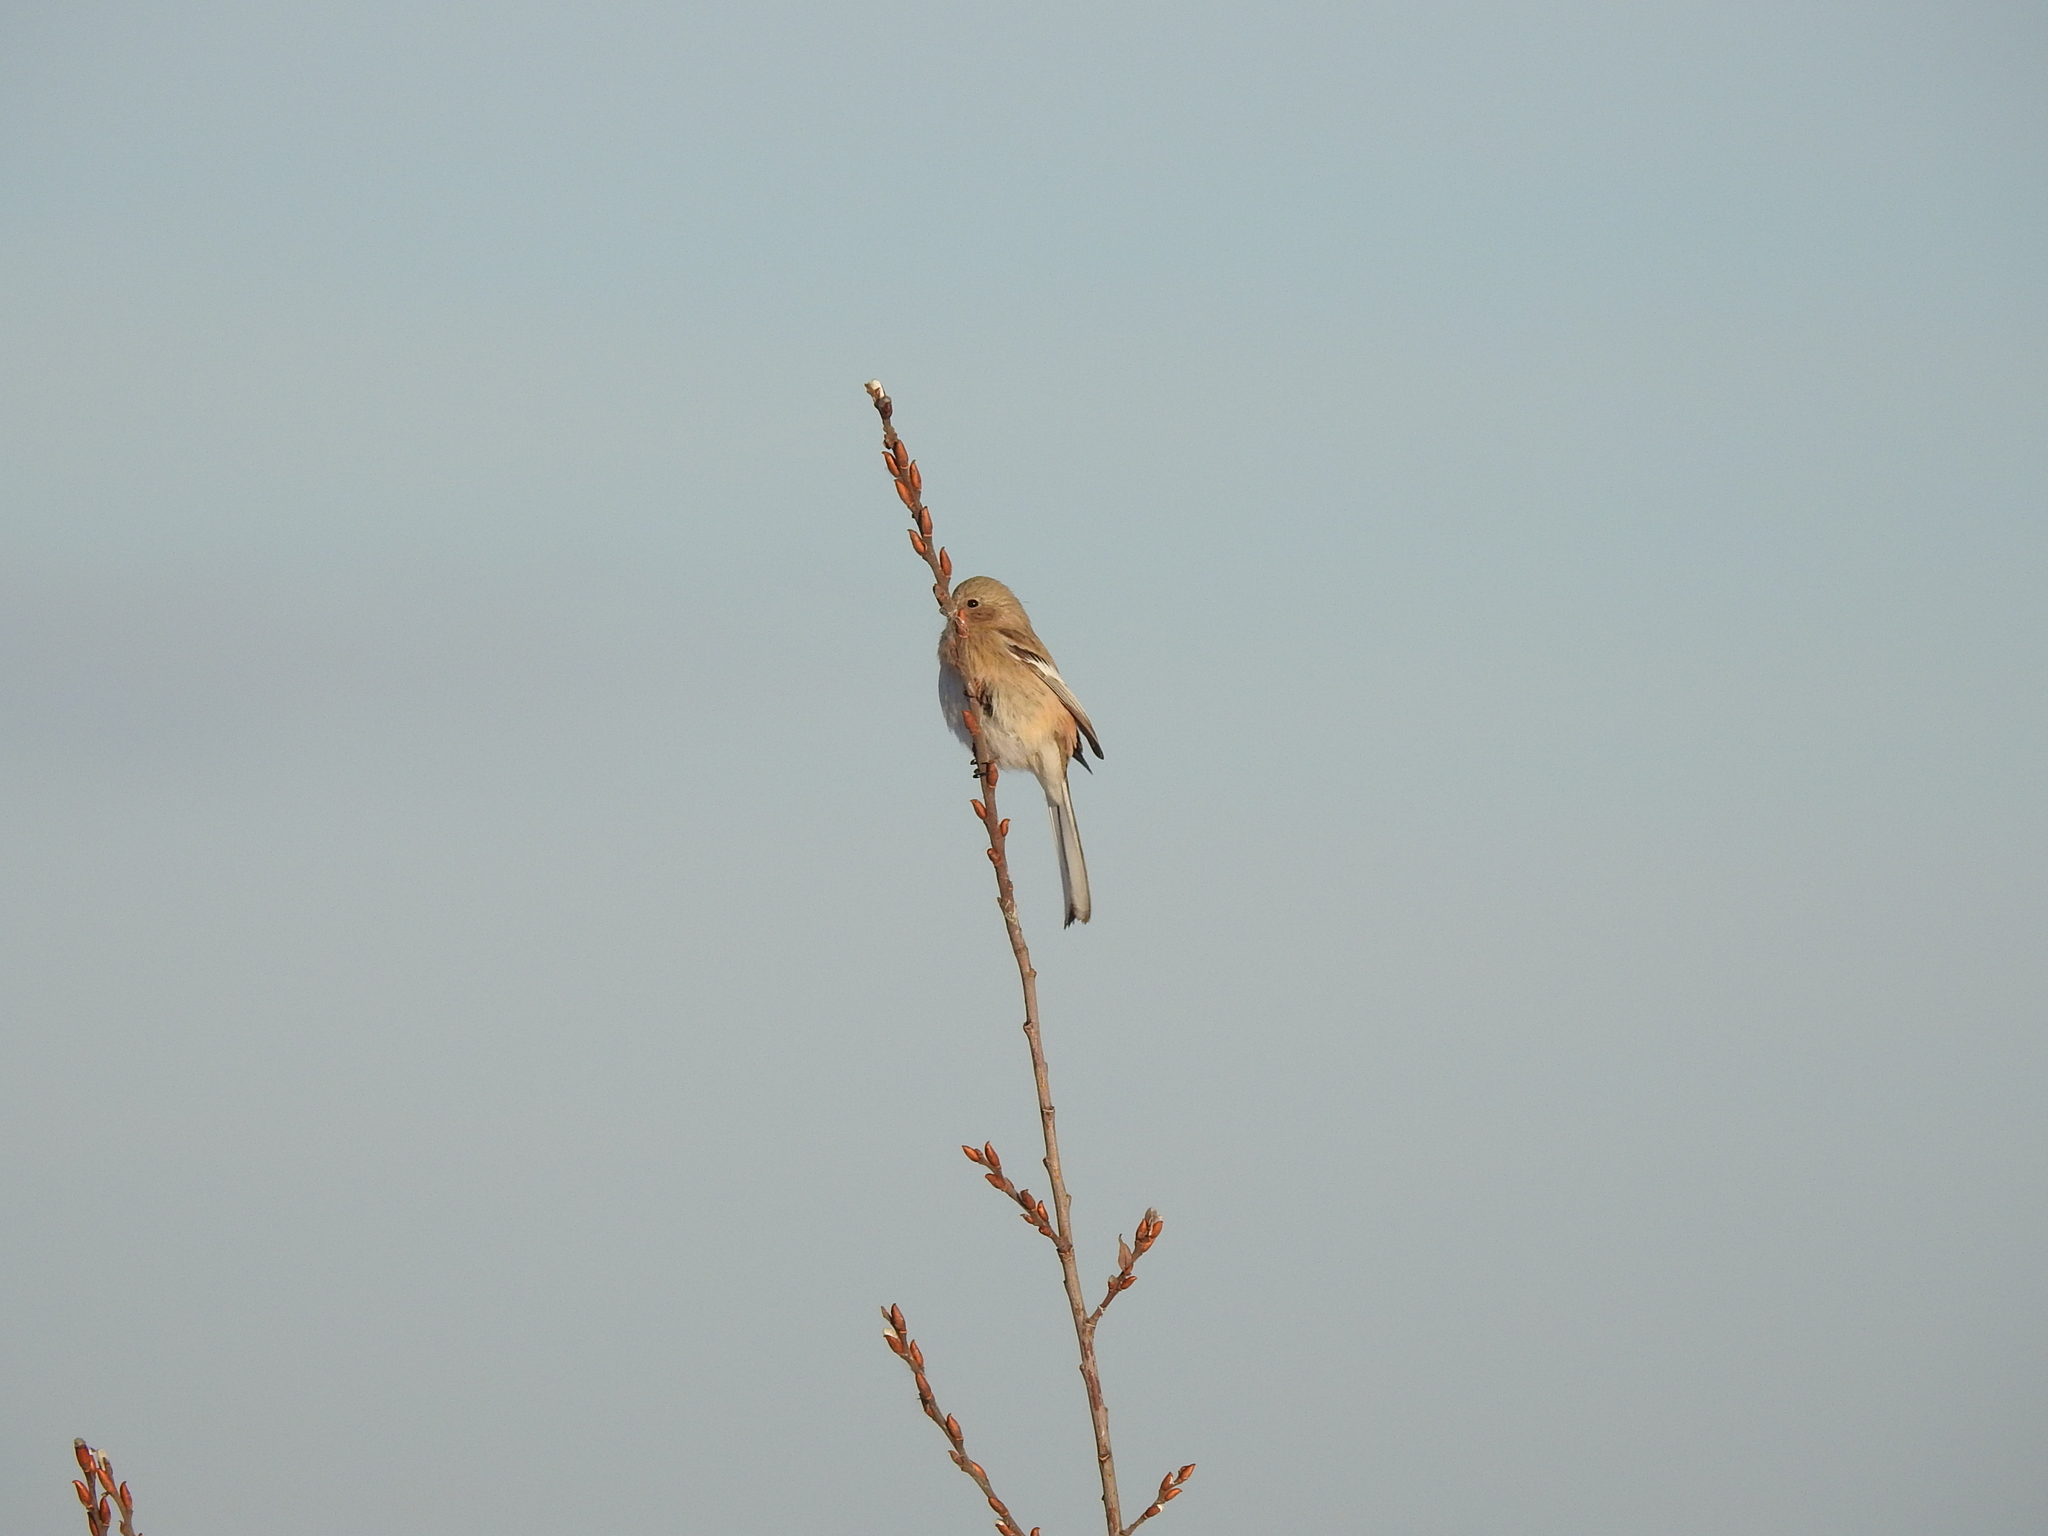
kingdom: Animalia
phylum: Chordata
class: Aves
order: Passeriformes
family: Fringillidae
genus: Carpodacus
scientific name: Carpodacus sibiricus
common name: Long-tailed rosefinch
